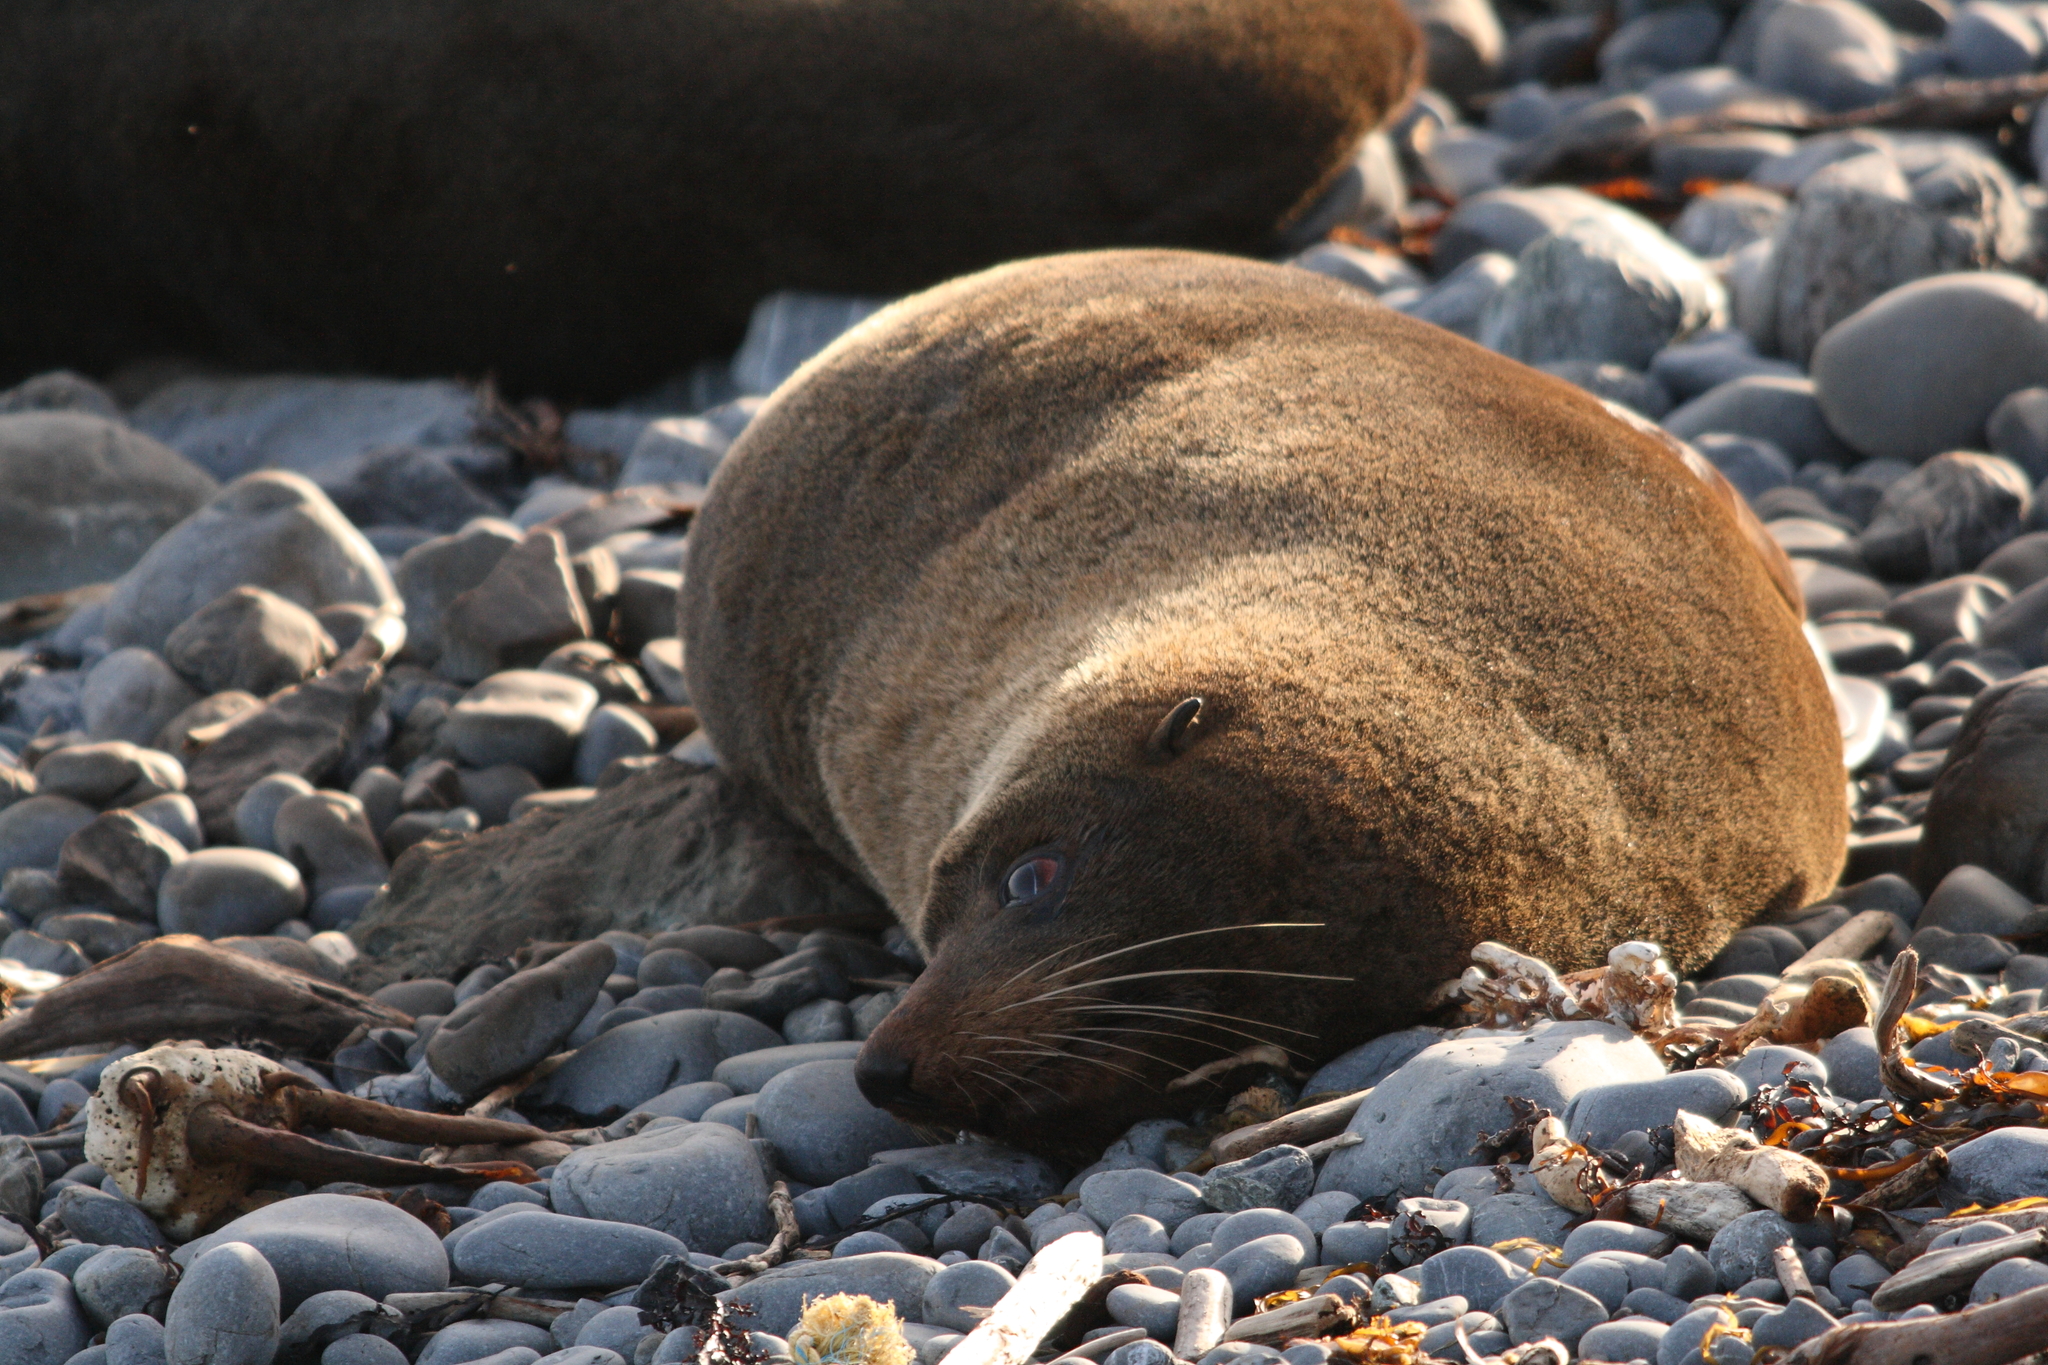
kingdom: Animalia
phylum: Chordata
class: Mammalia
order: Carnivora
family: Otariidae
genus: Arctocephalus
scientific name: Arctocephalus forsteri
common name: New zealand fur seal
